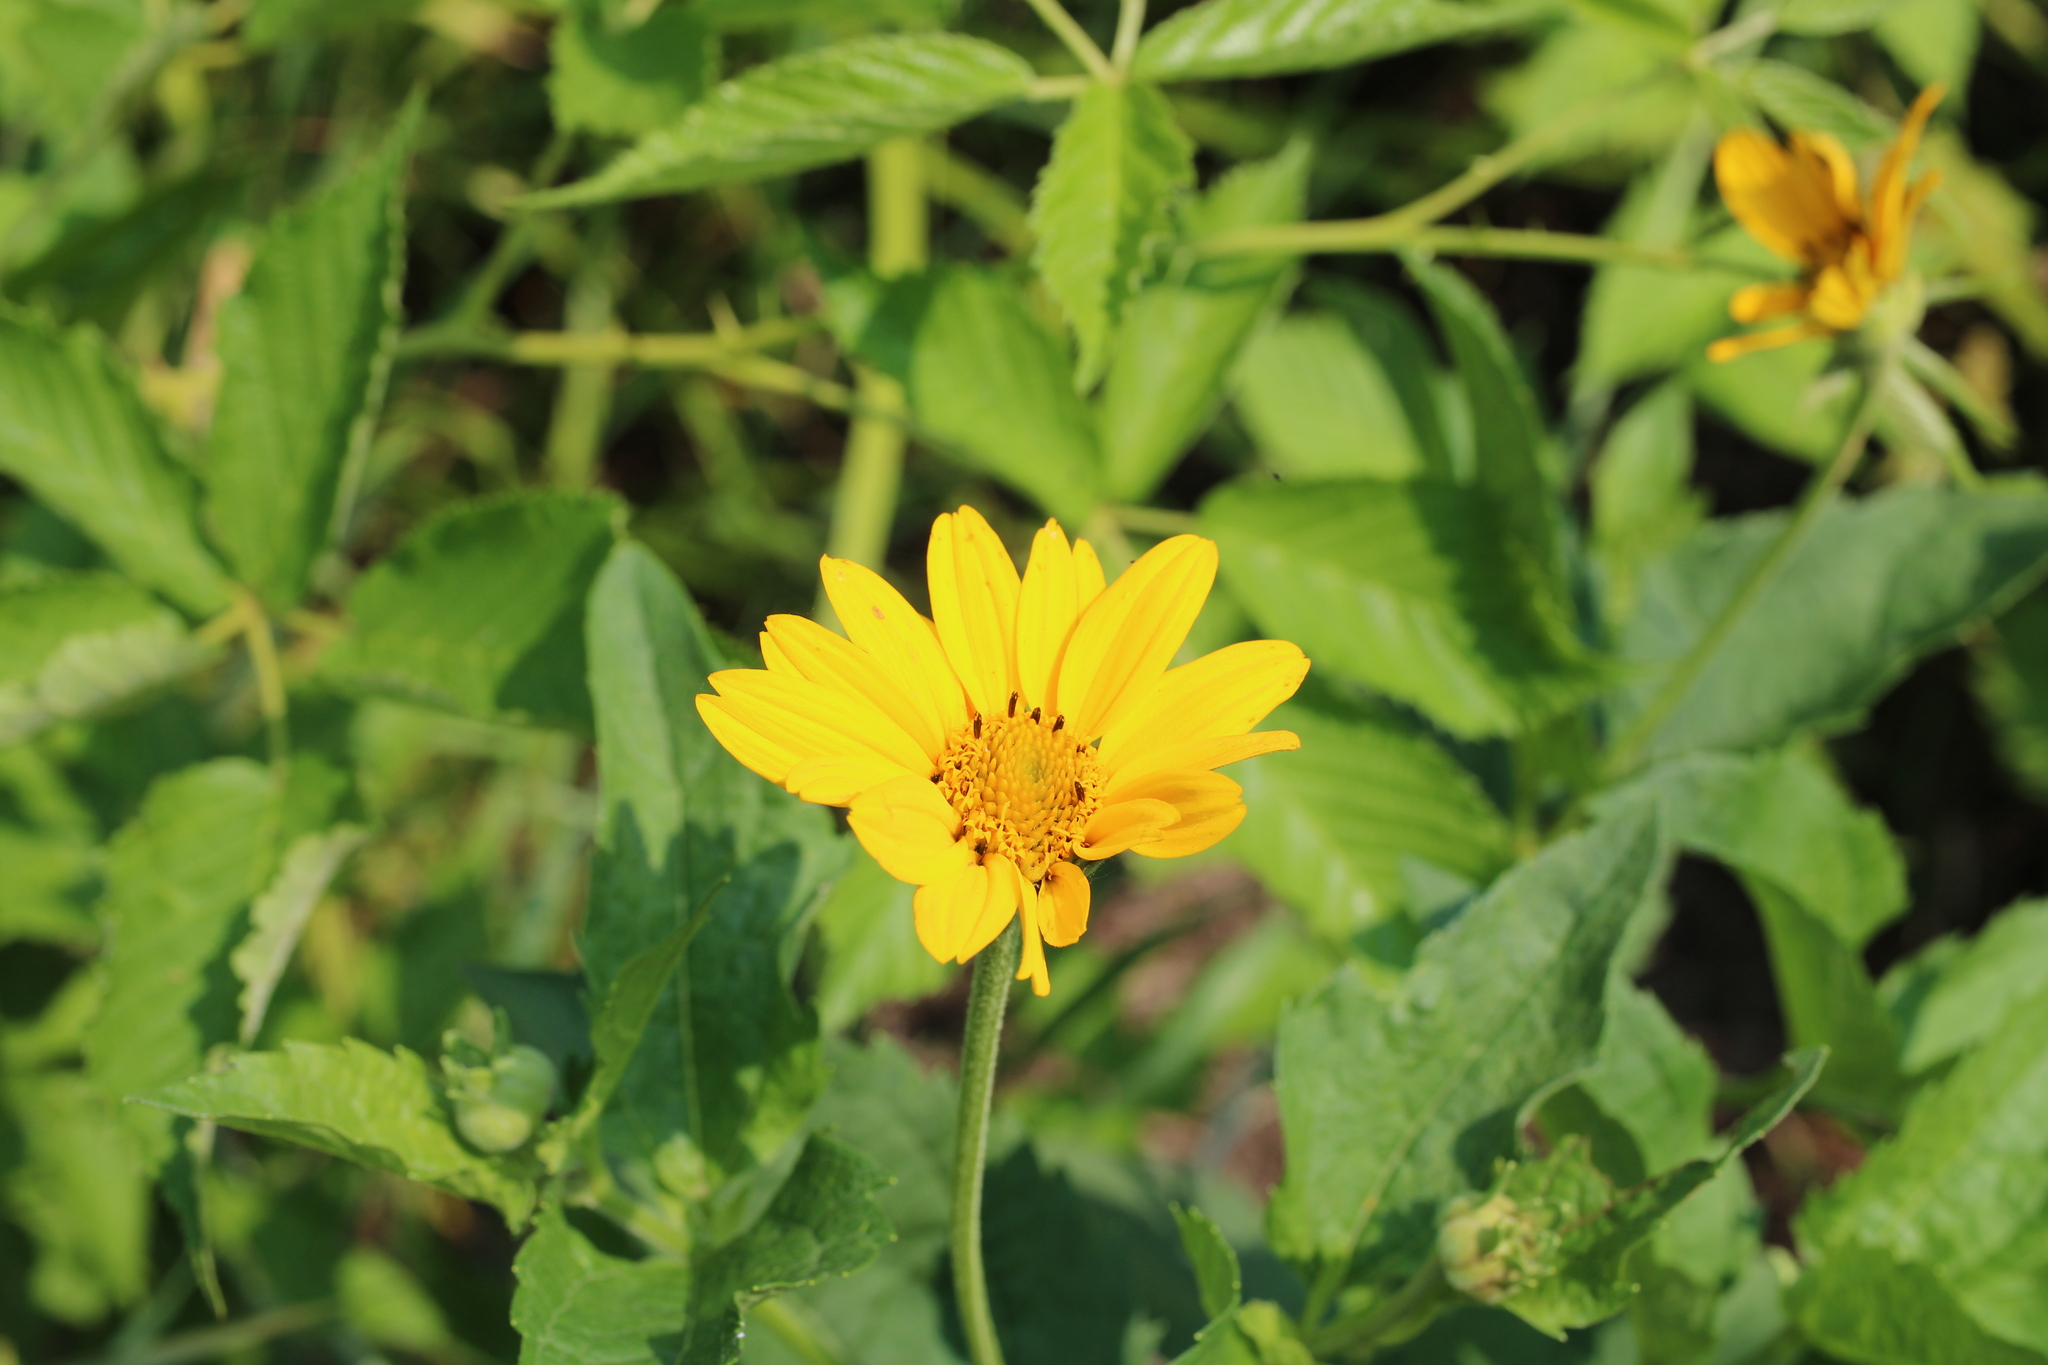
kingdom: Plantae
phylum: Tracheophyta
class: Magnoliopsida
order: Asterales
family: Asteraceae
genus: Heliopsis
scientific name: Heliopsis helianthoides
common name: False sunflower
